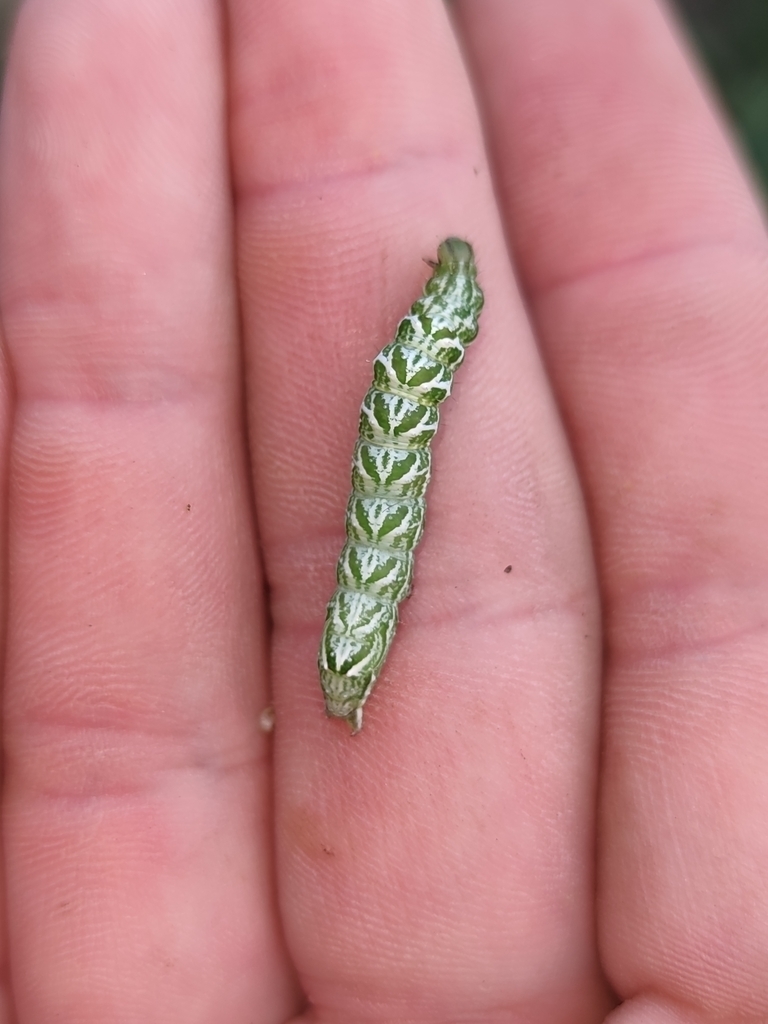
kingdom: Animalia
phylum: Arthropoda
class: Insecta
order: Lepidoptera
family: Noctuidae
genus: Abrostola
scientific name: Abrostola tripartita
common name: Spectacle
